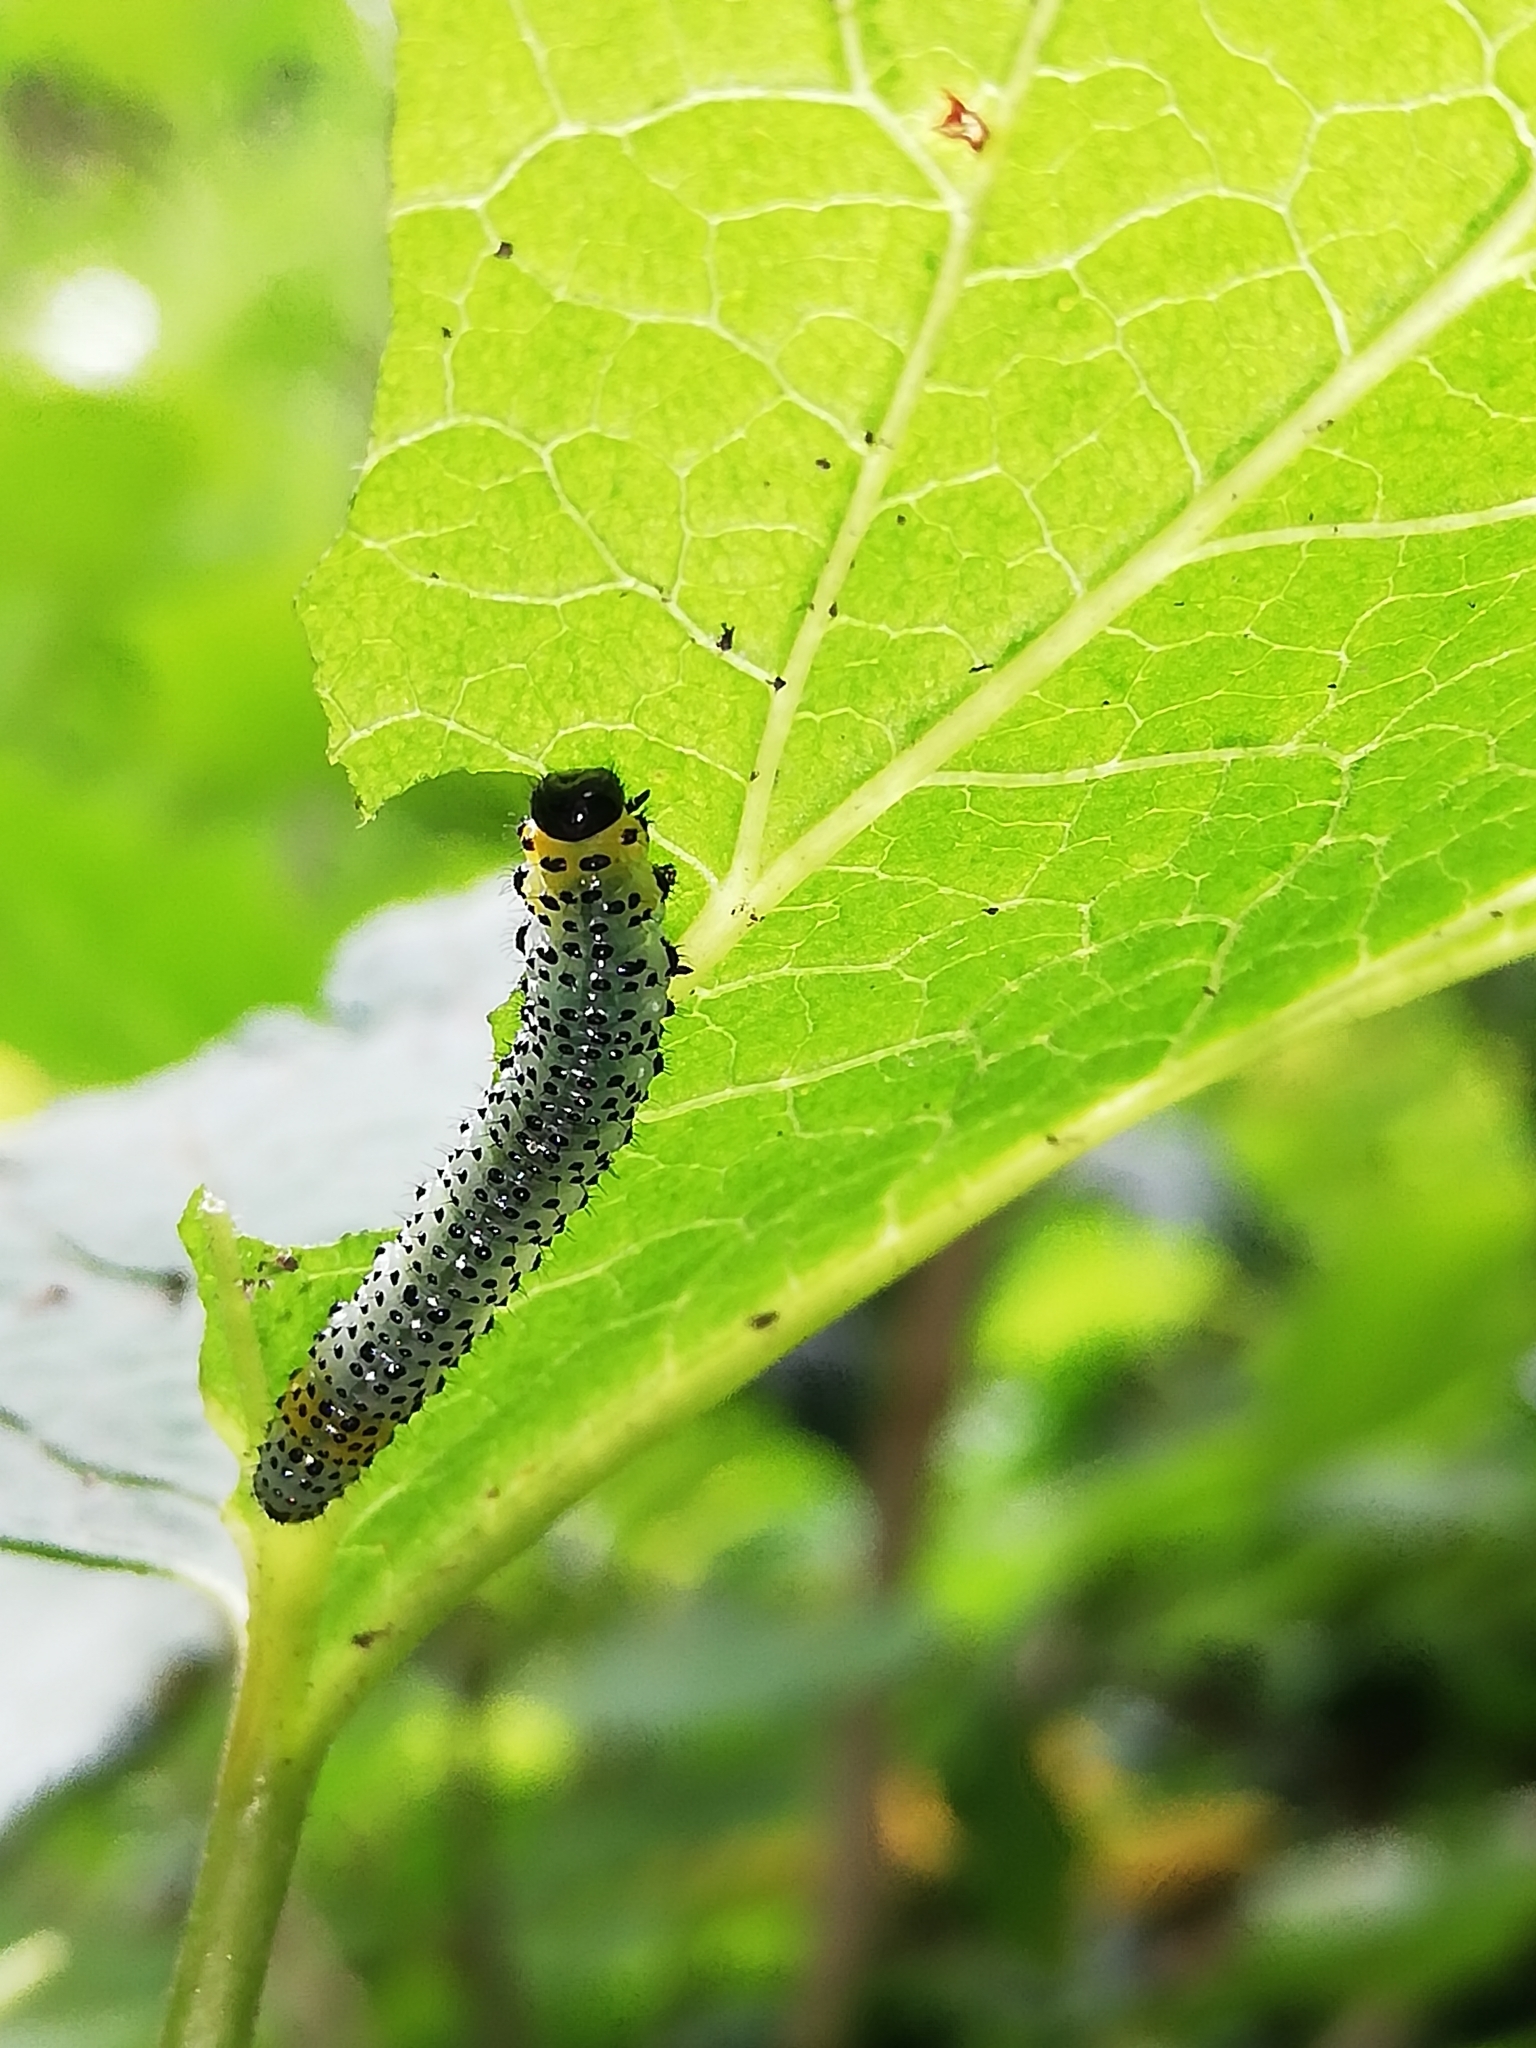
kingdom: Animalia
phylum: Arthropoda
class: Insecta
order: Hymenoptera
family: Tenthredinidae
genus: Nematus
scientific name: Nematus ribesii
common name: Imported currantworm
